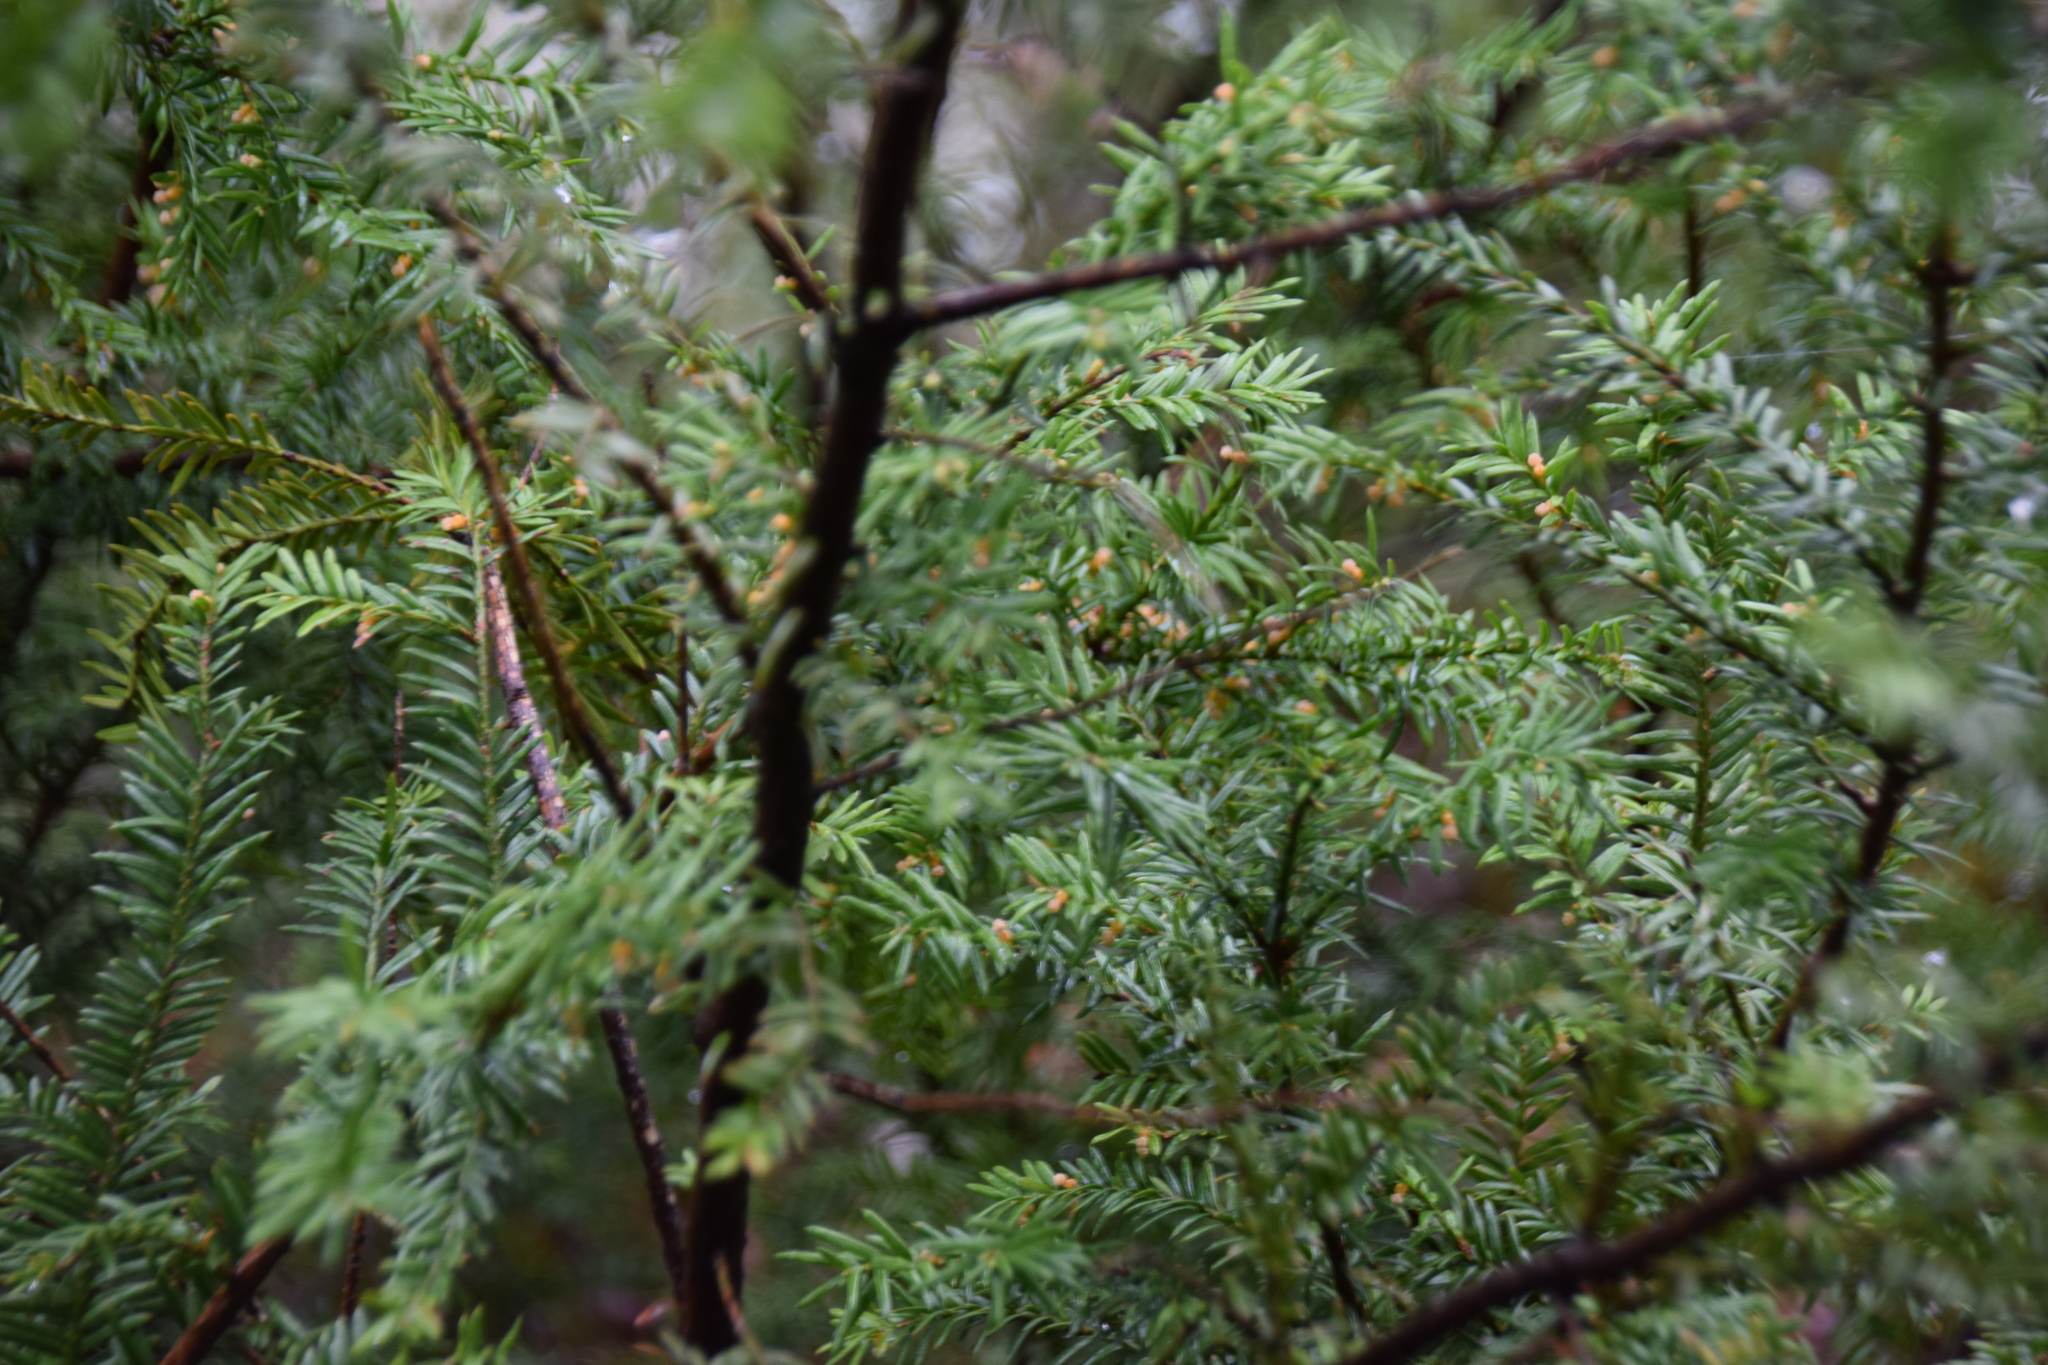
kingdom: Plantae
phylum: Tracheophyta
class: Pinopsida
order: Pinales
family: Taxaceae
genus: Taxus
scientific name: Taxus canadensis
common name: American yew
